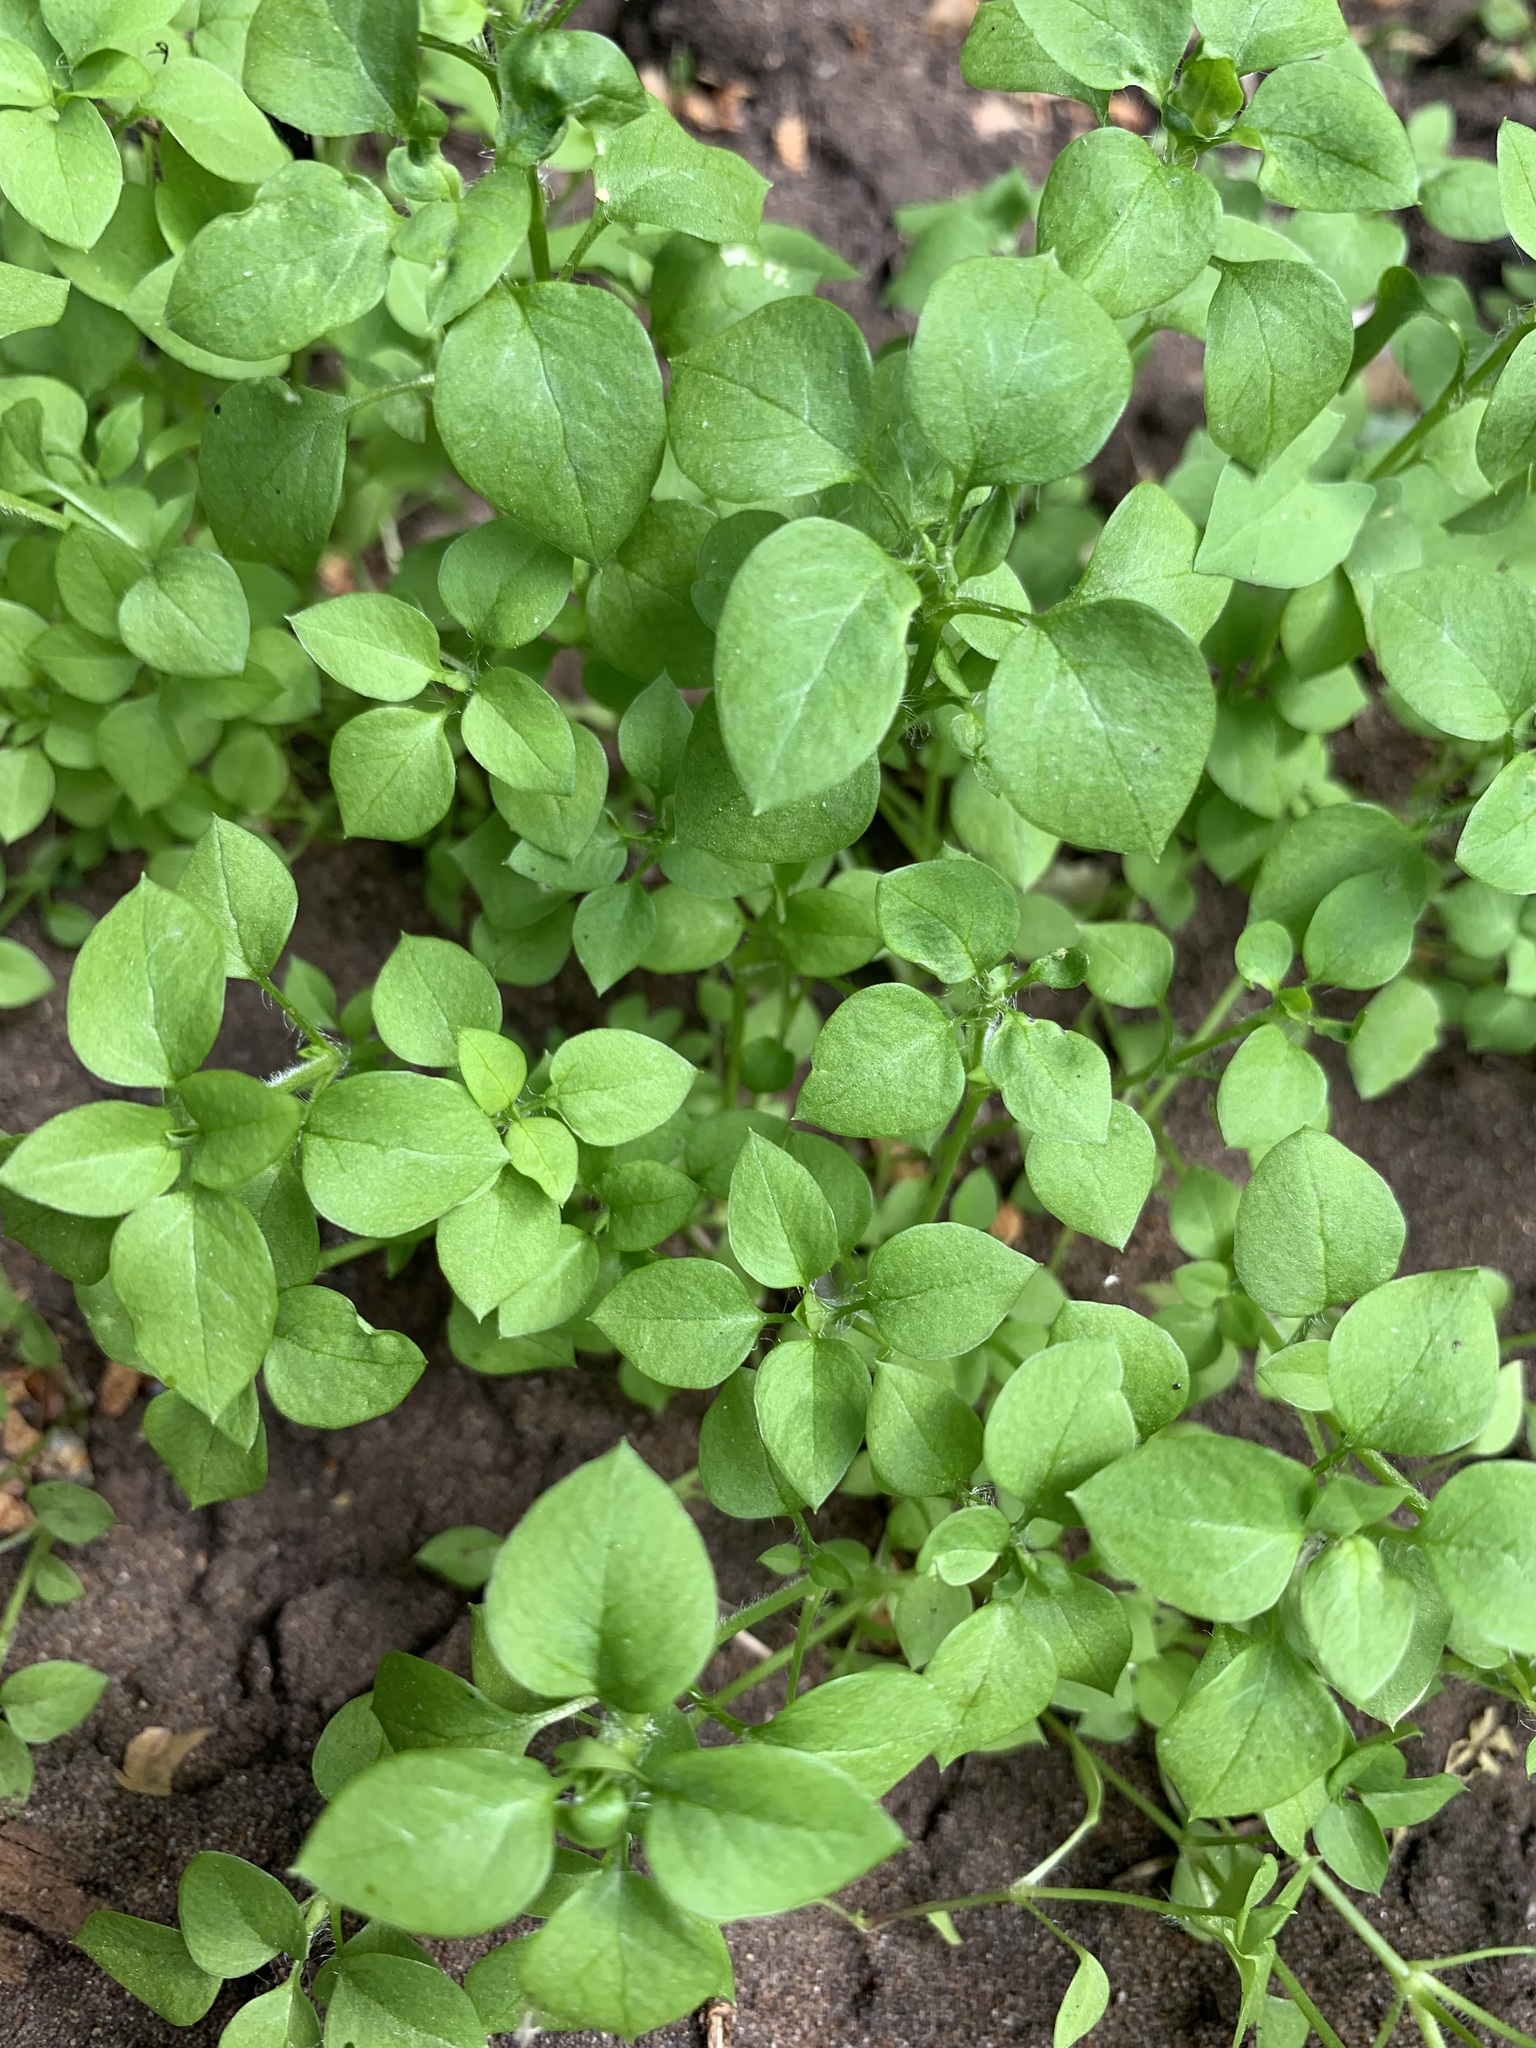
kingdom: Plantae
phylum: Tracheophyta
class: Magnoliopsida
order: Caryophyllales
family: Caryophyllaceae
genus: Stellaria
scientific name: Stellaria media
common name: Common chickweed
